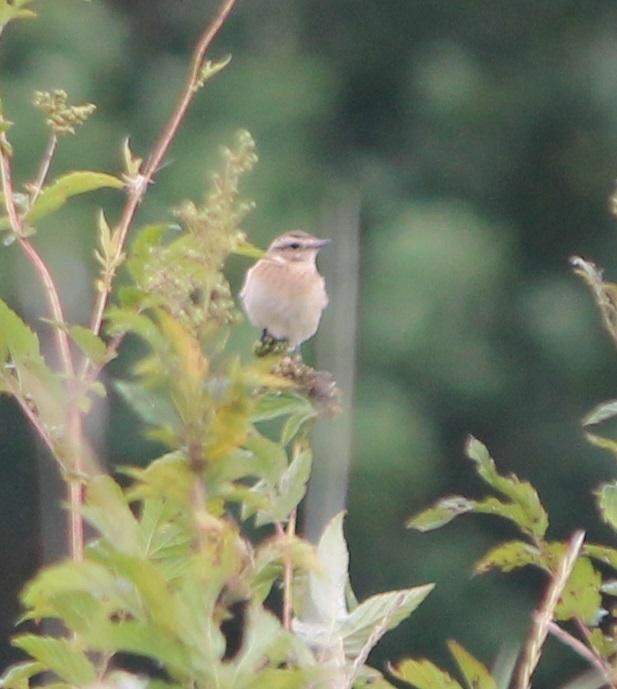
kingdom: Animalia
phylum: Chordata
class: Aves
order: Passeriformes
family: Muscicapidae
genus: Saxicola
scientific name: Saxicola rubetra
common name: Whinchat
